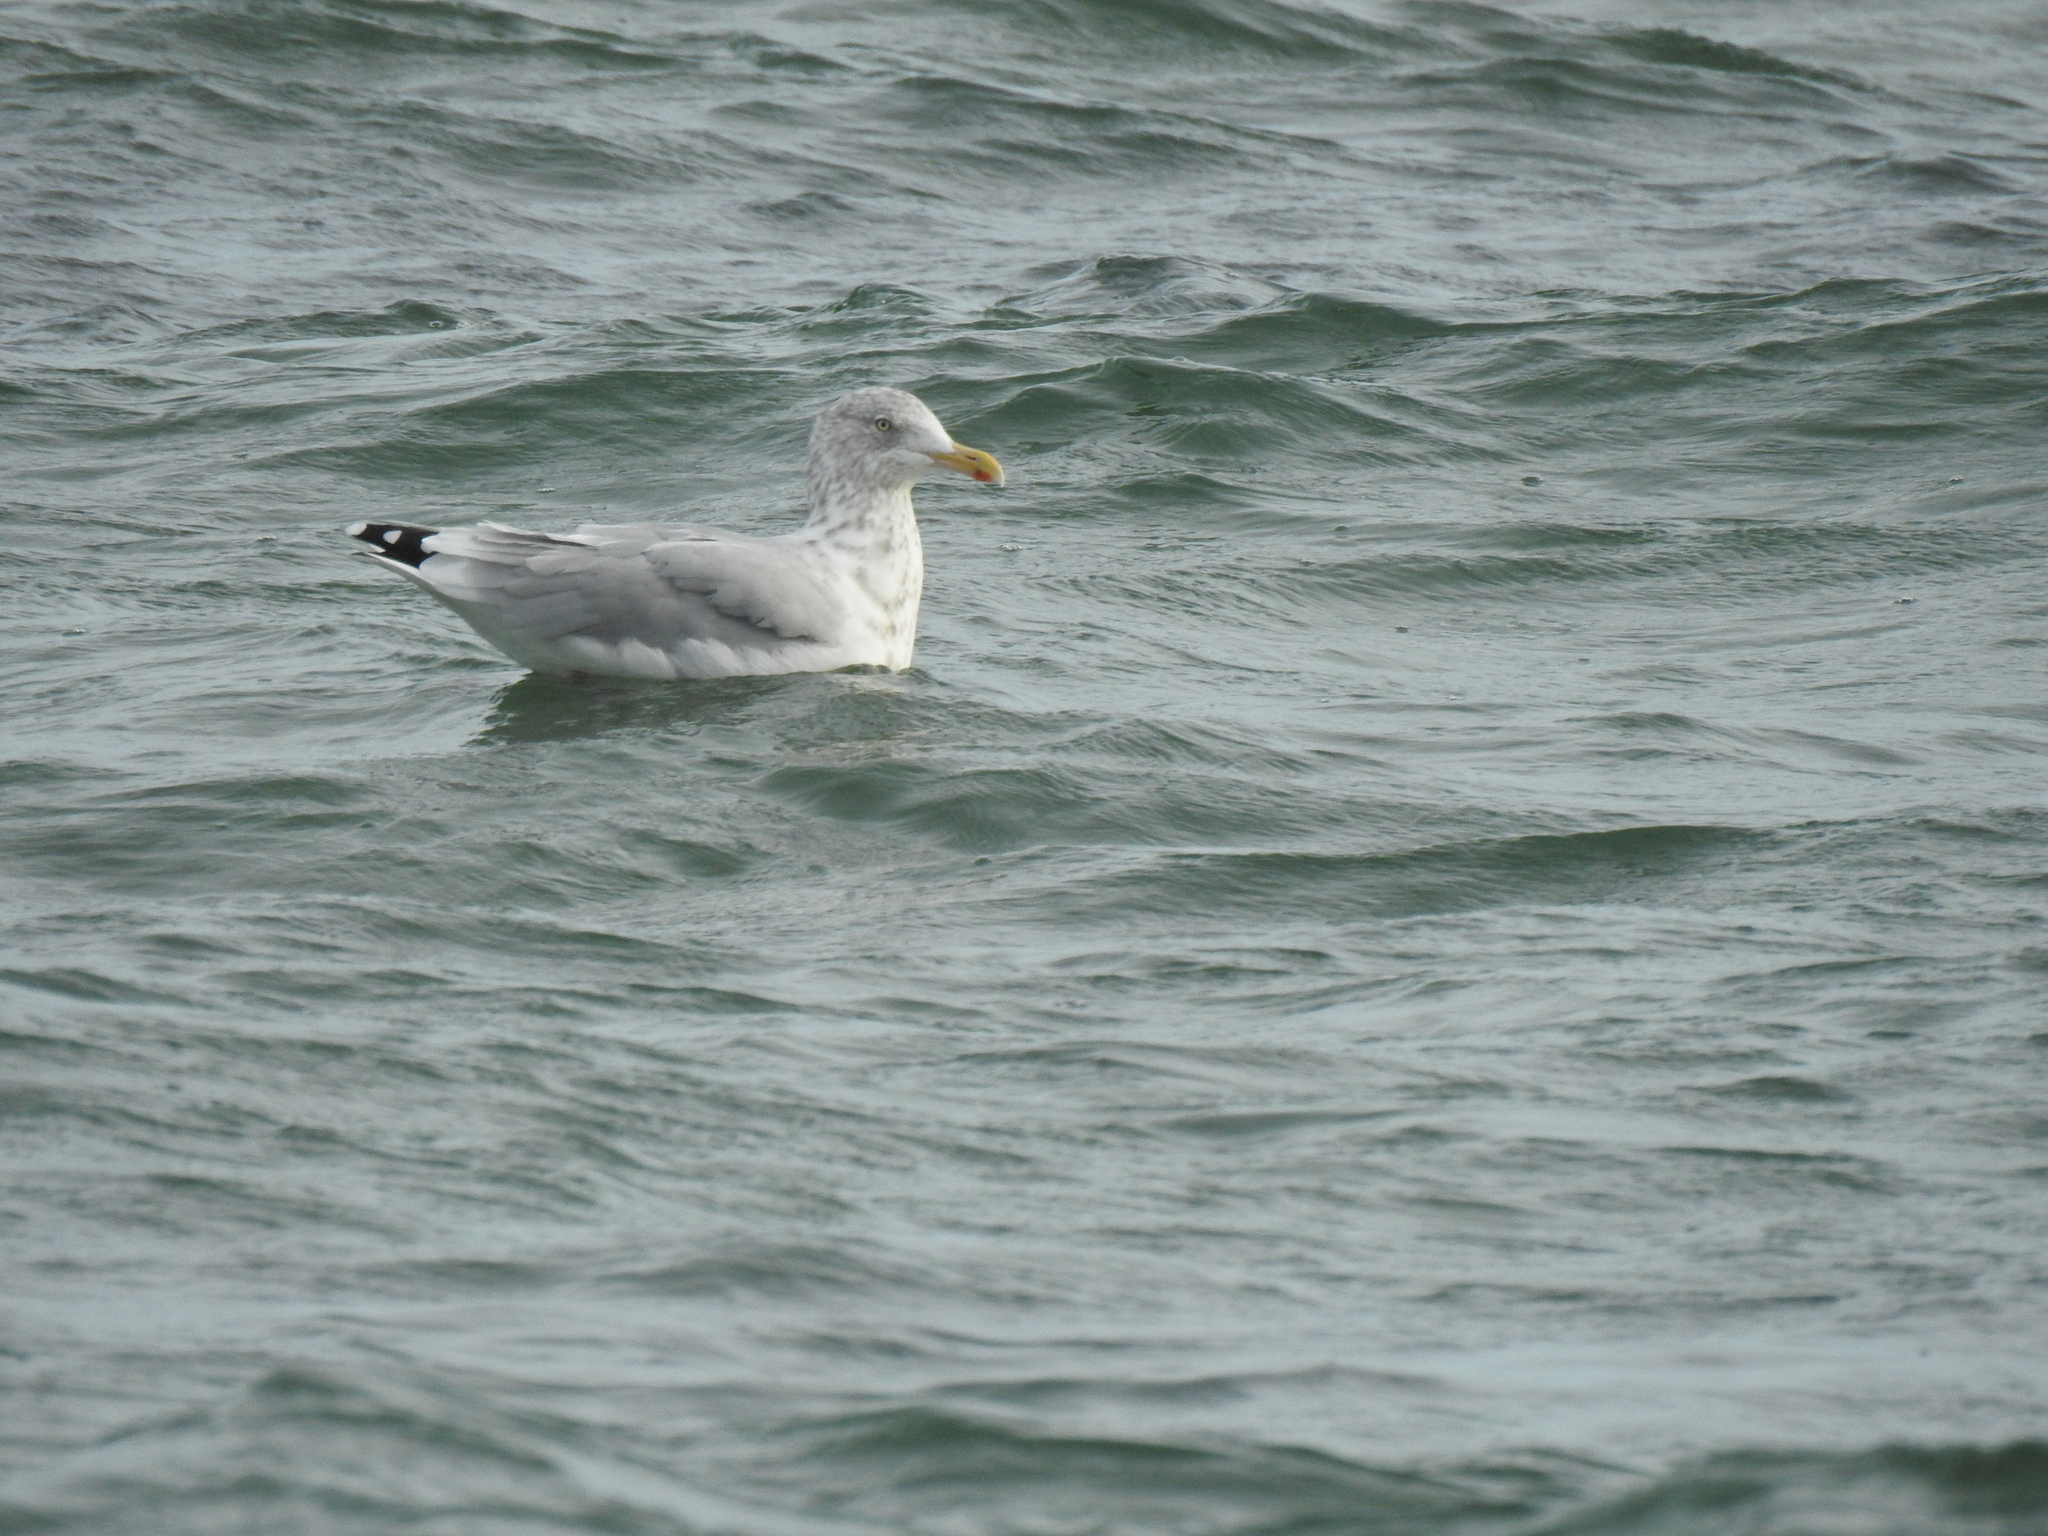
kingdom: Animalia
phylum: Chordata
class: Aves
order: Charadriiformes
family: Laridae
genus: Larus
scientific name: Larus argentatus
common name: Herring gull
